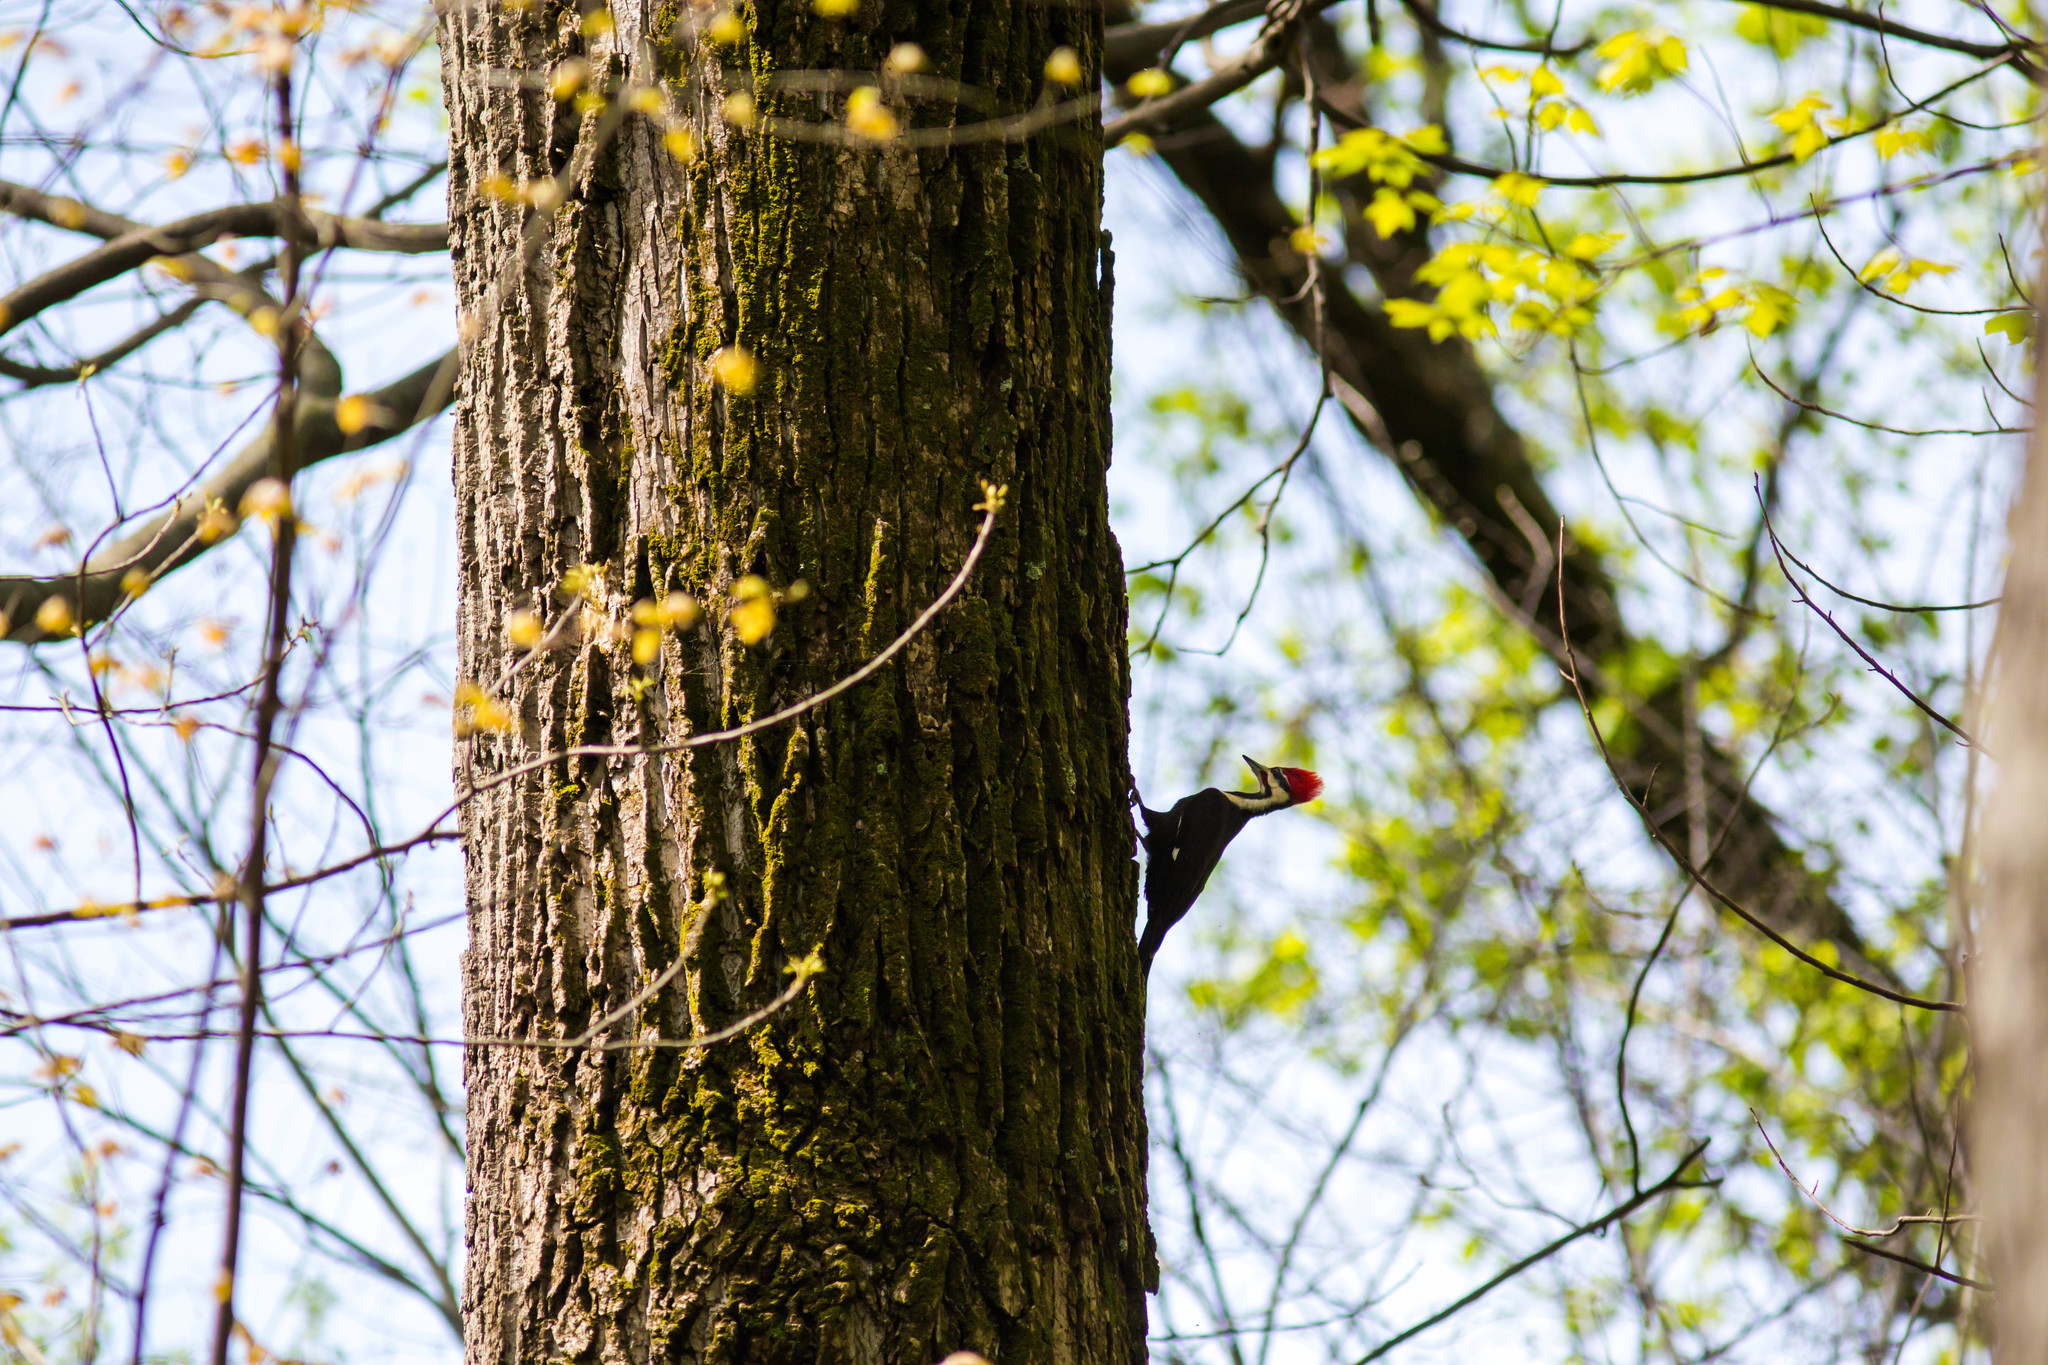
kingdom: Animalia
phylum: Chordata
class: Aves
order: Piciformes
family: Picidae
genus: Dryocopus
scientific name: Dryocopus pileatus
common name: Pileated woodpecker
